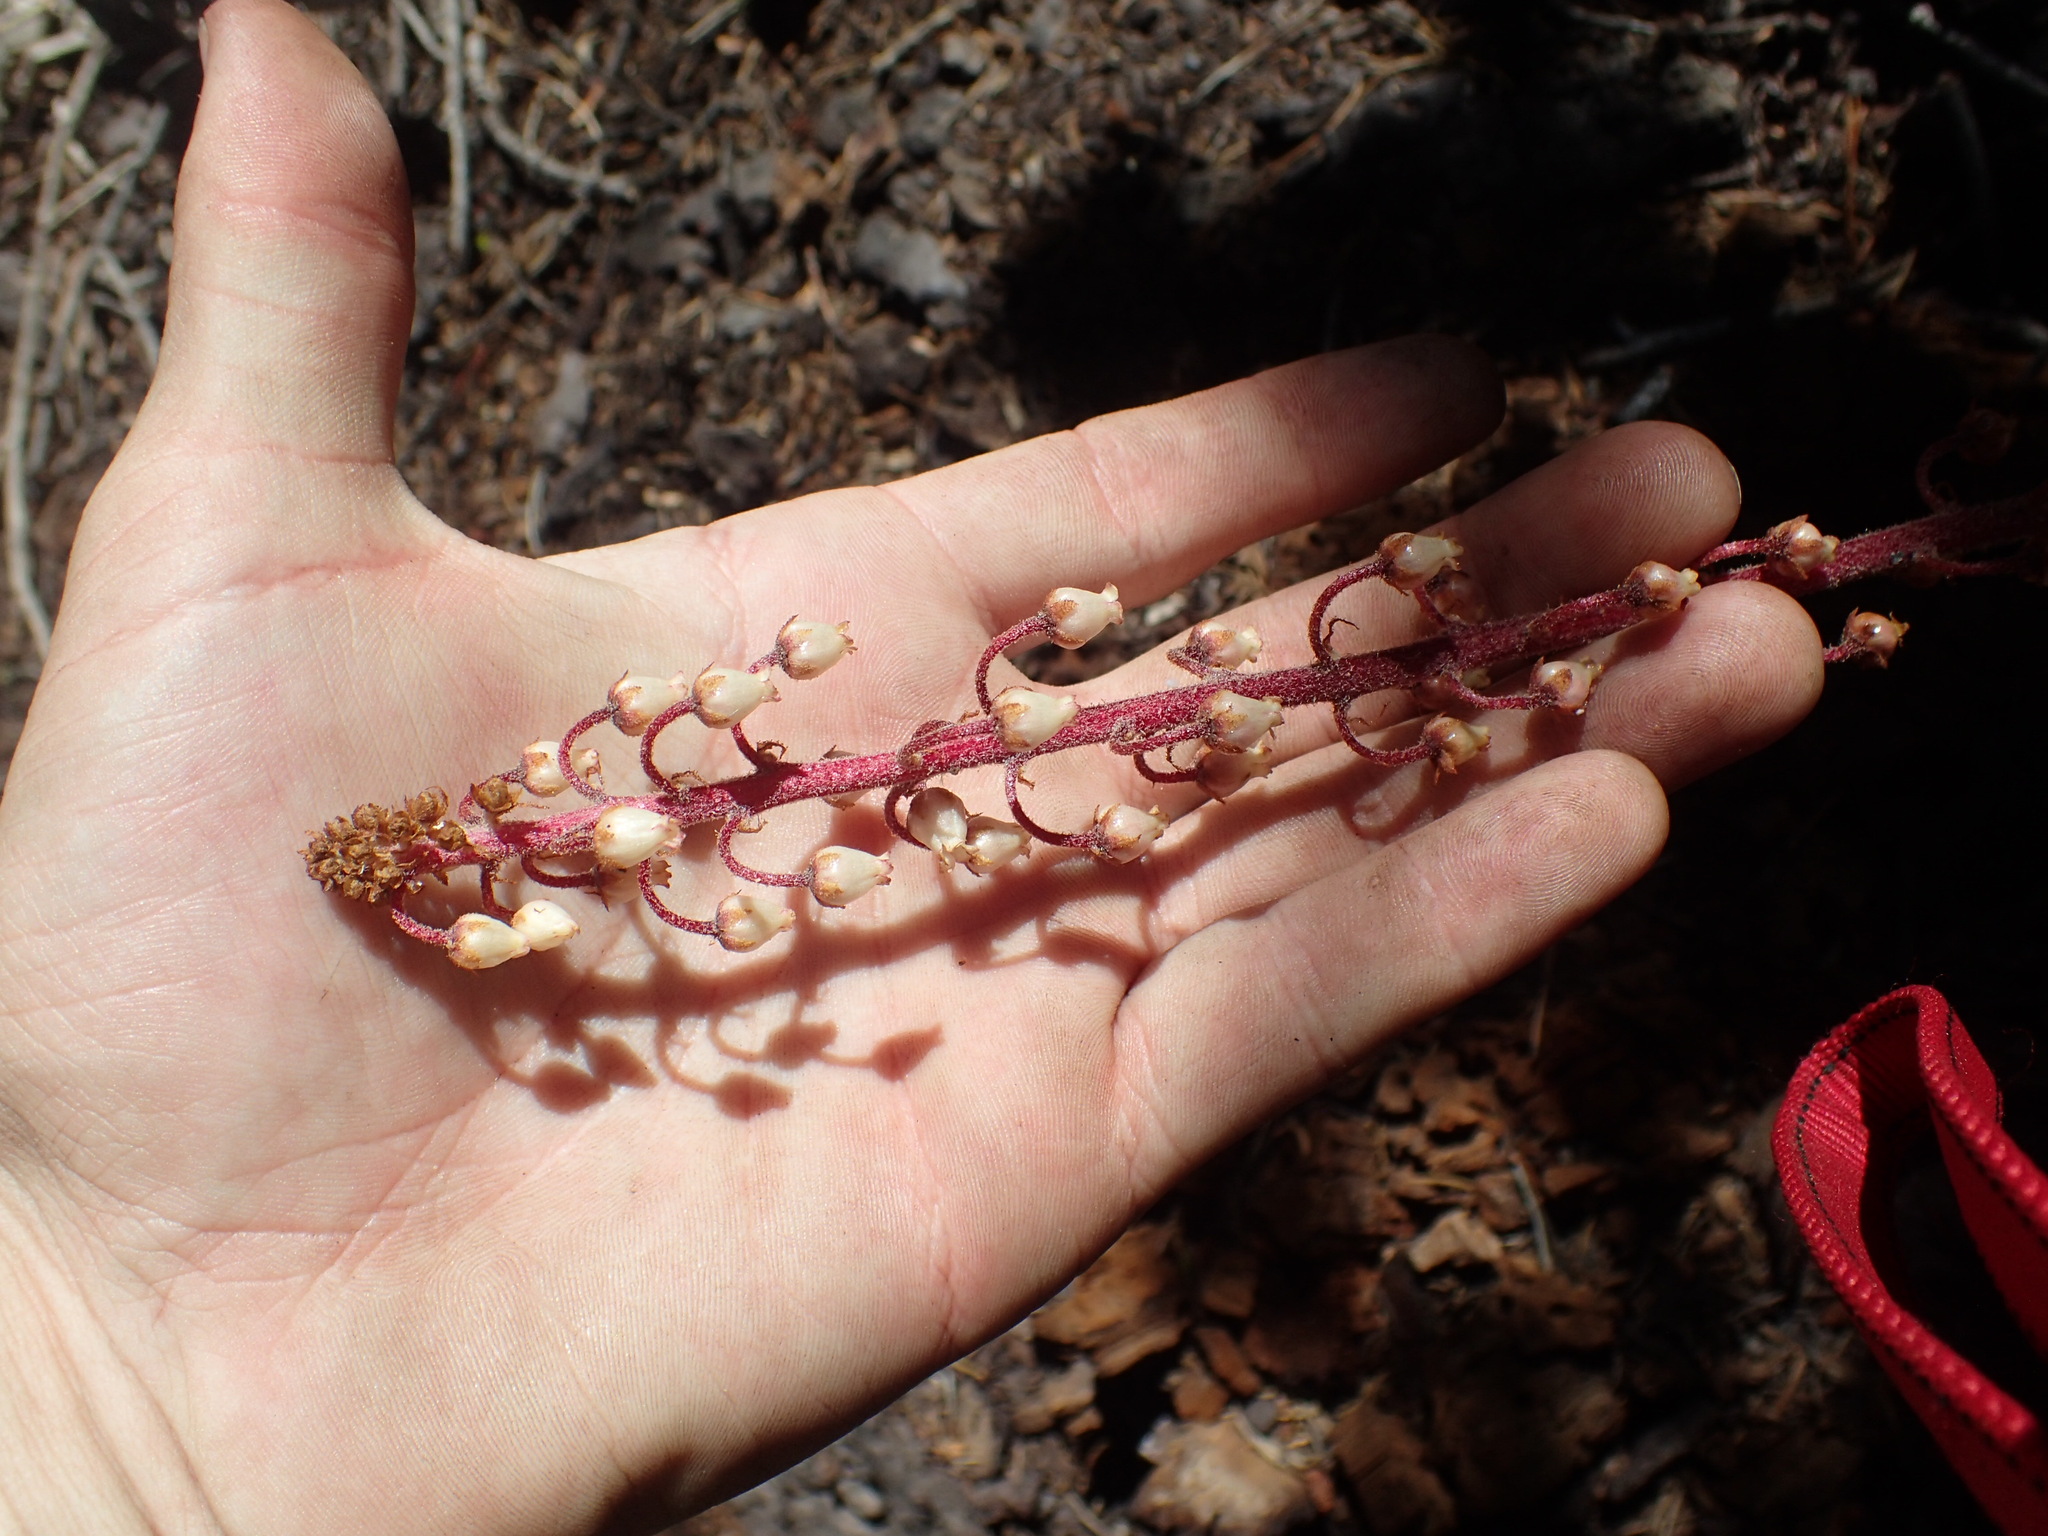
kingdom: Plantae
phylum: Tracheophyta
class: Magnoliopsida
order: Ericales
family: Ericaceae
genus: Pterospora
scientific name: Pterospora andromedea
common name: Giant bird's-nest
